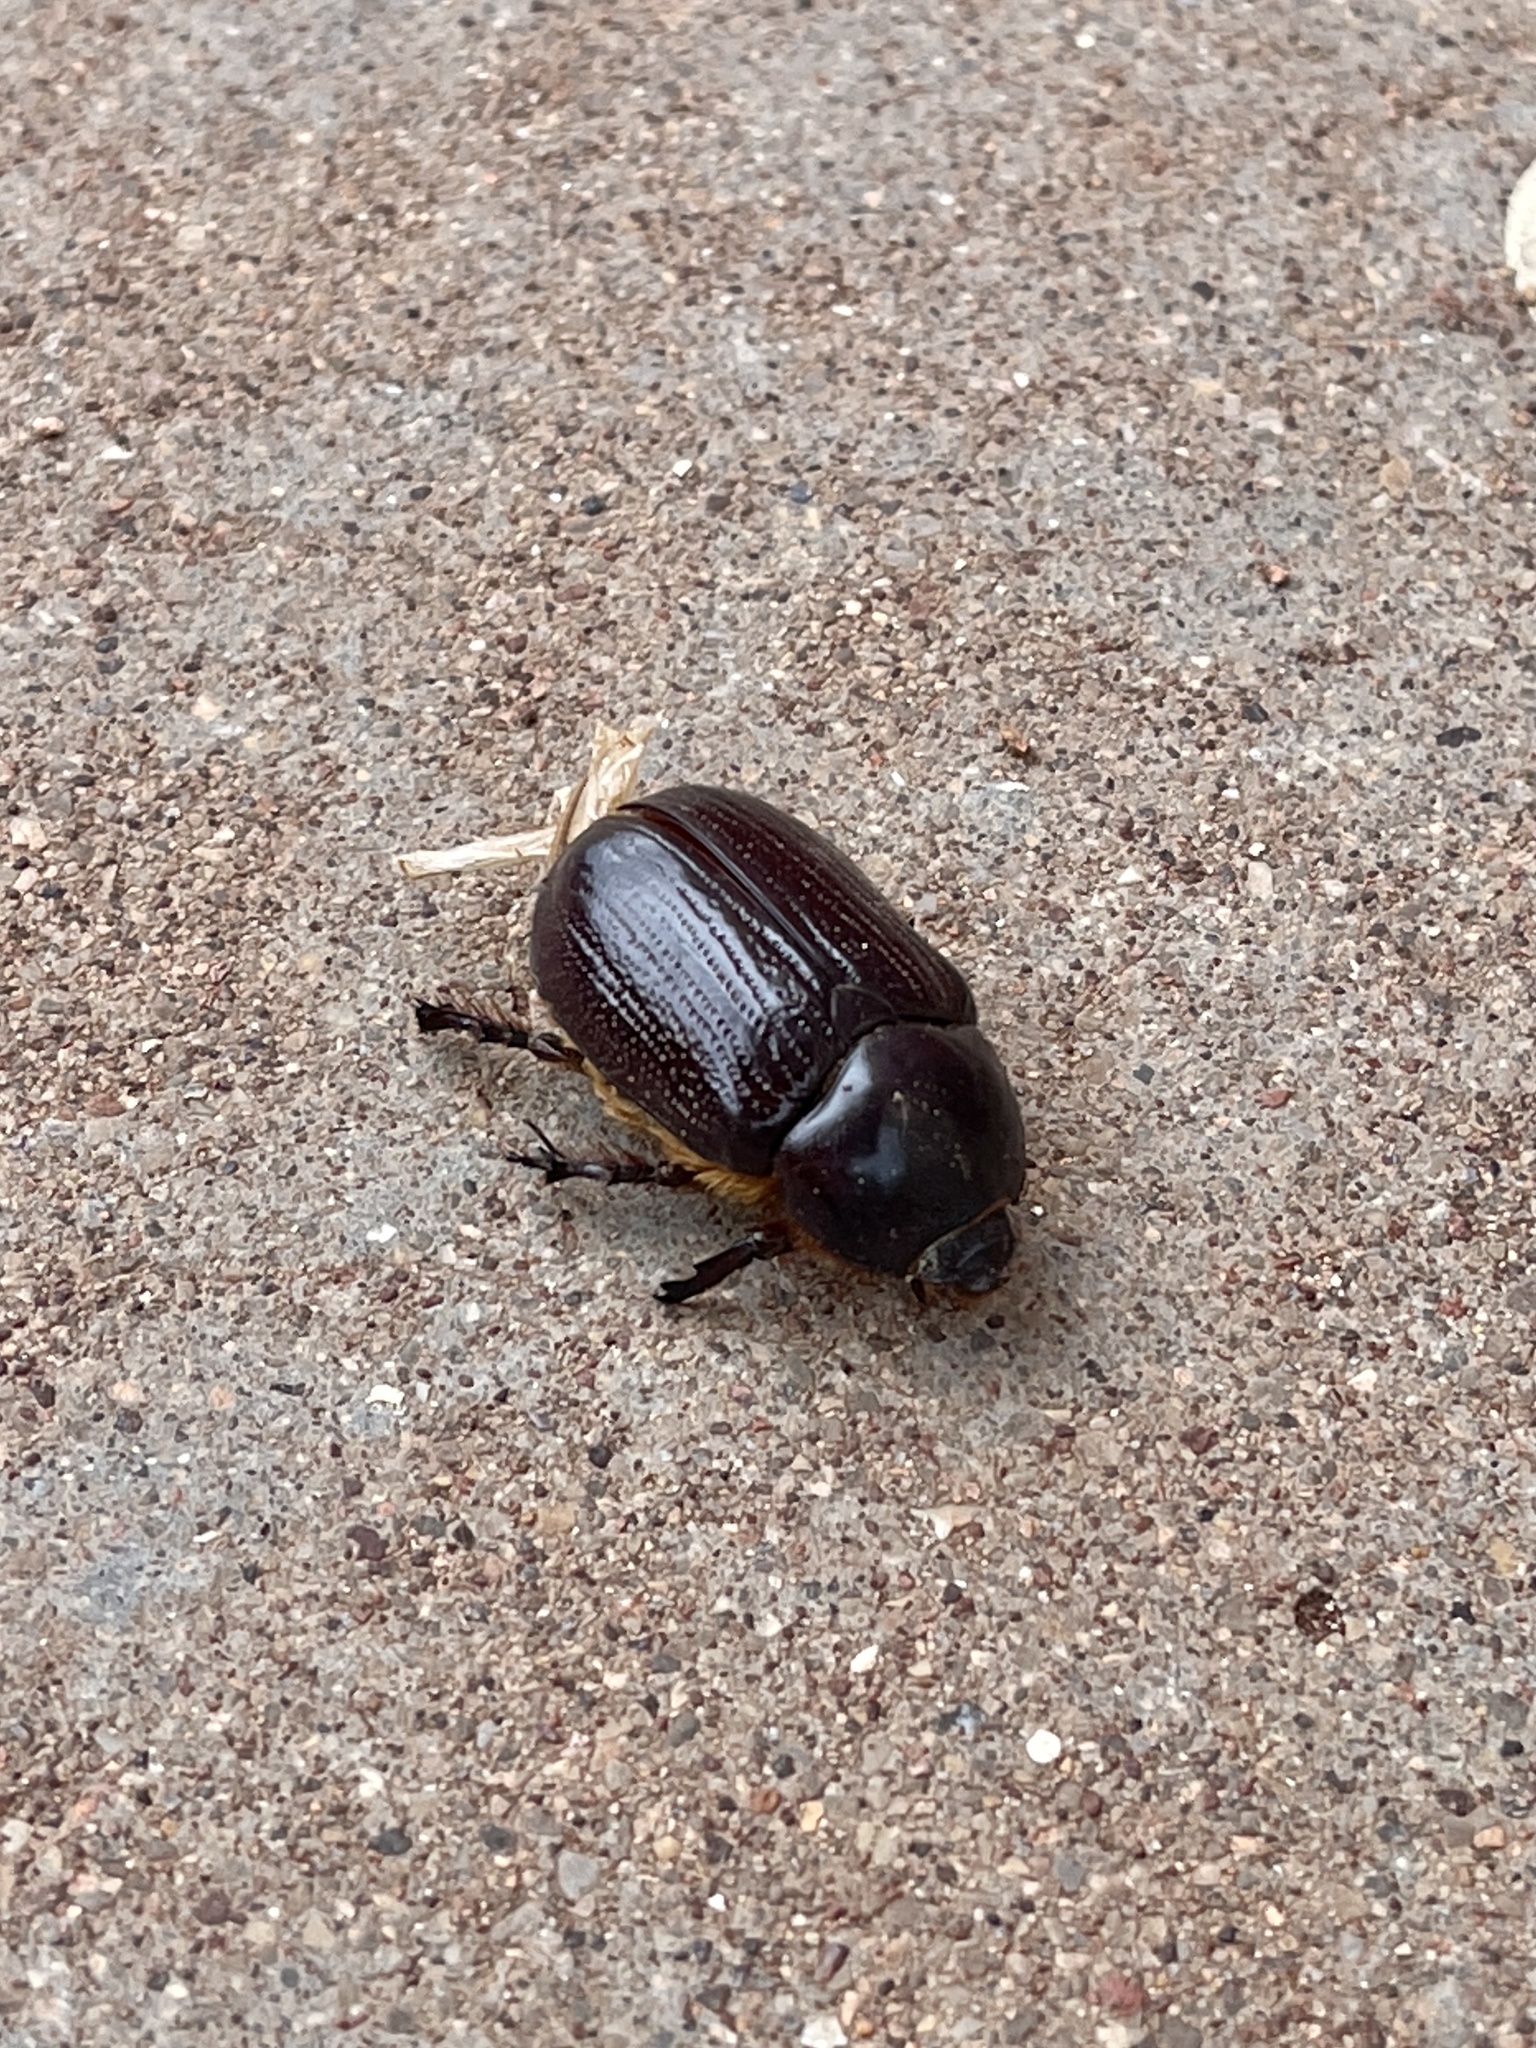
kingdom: Animalia
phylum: Arthropoda
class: Insecta
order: Coleoptera
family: Scarabaeidae
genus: Xyloryctes
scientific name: Xyloryctes thestalus
